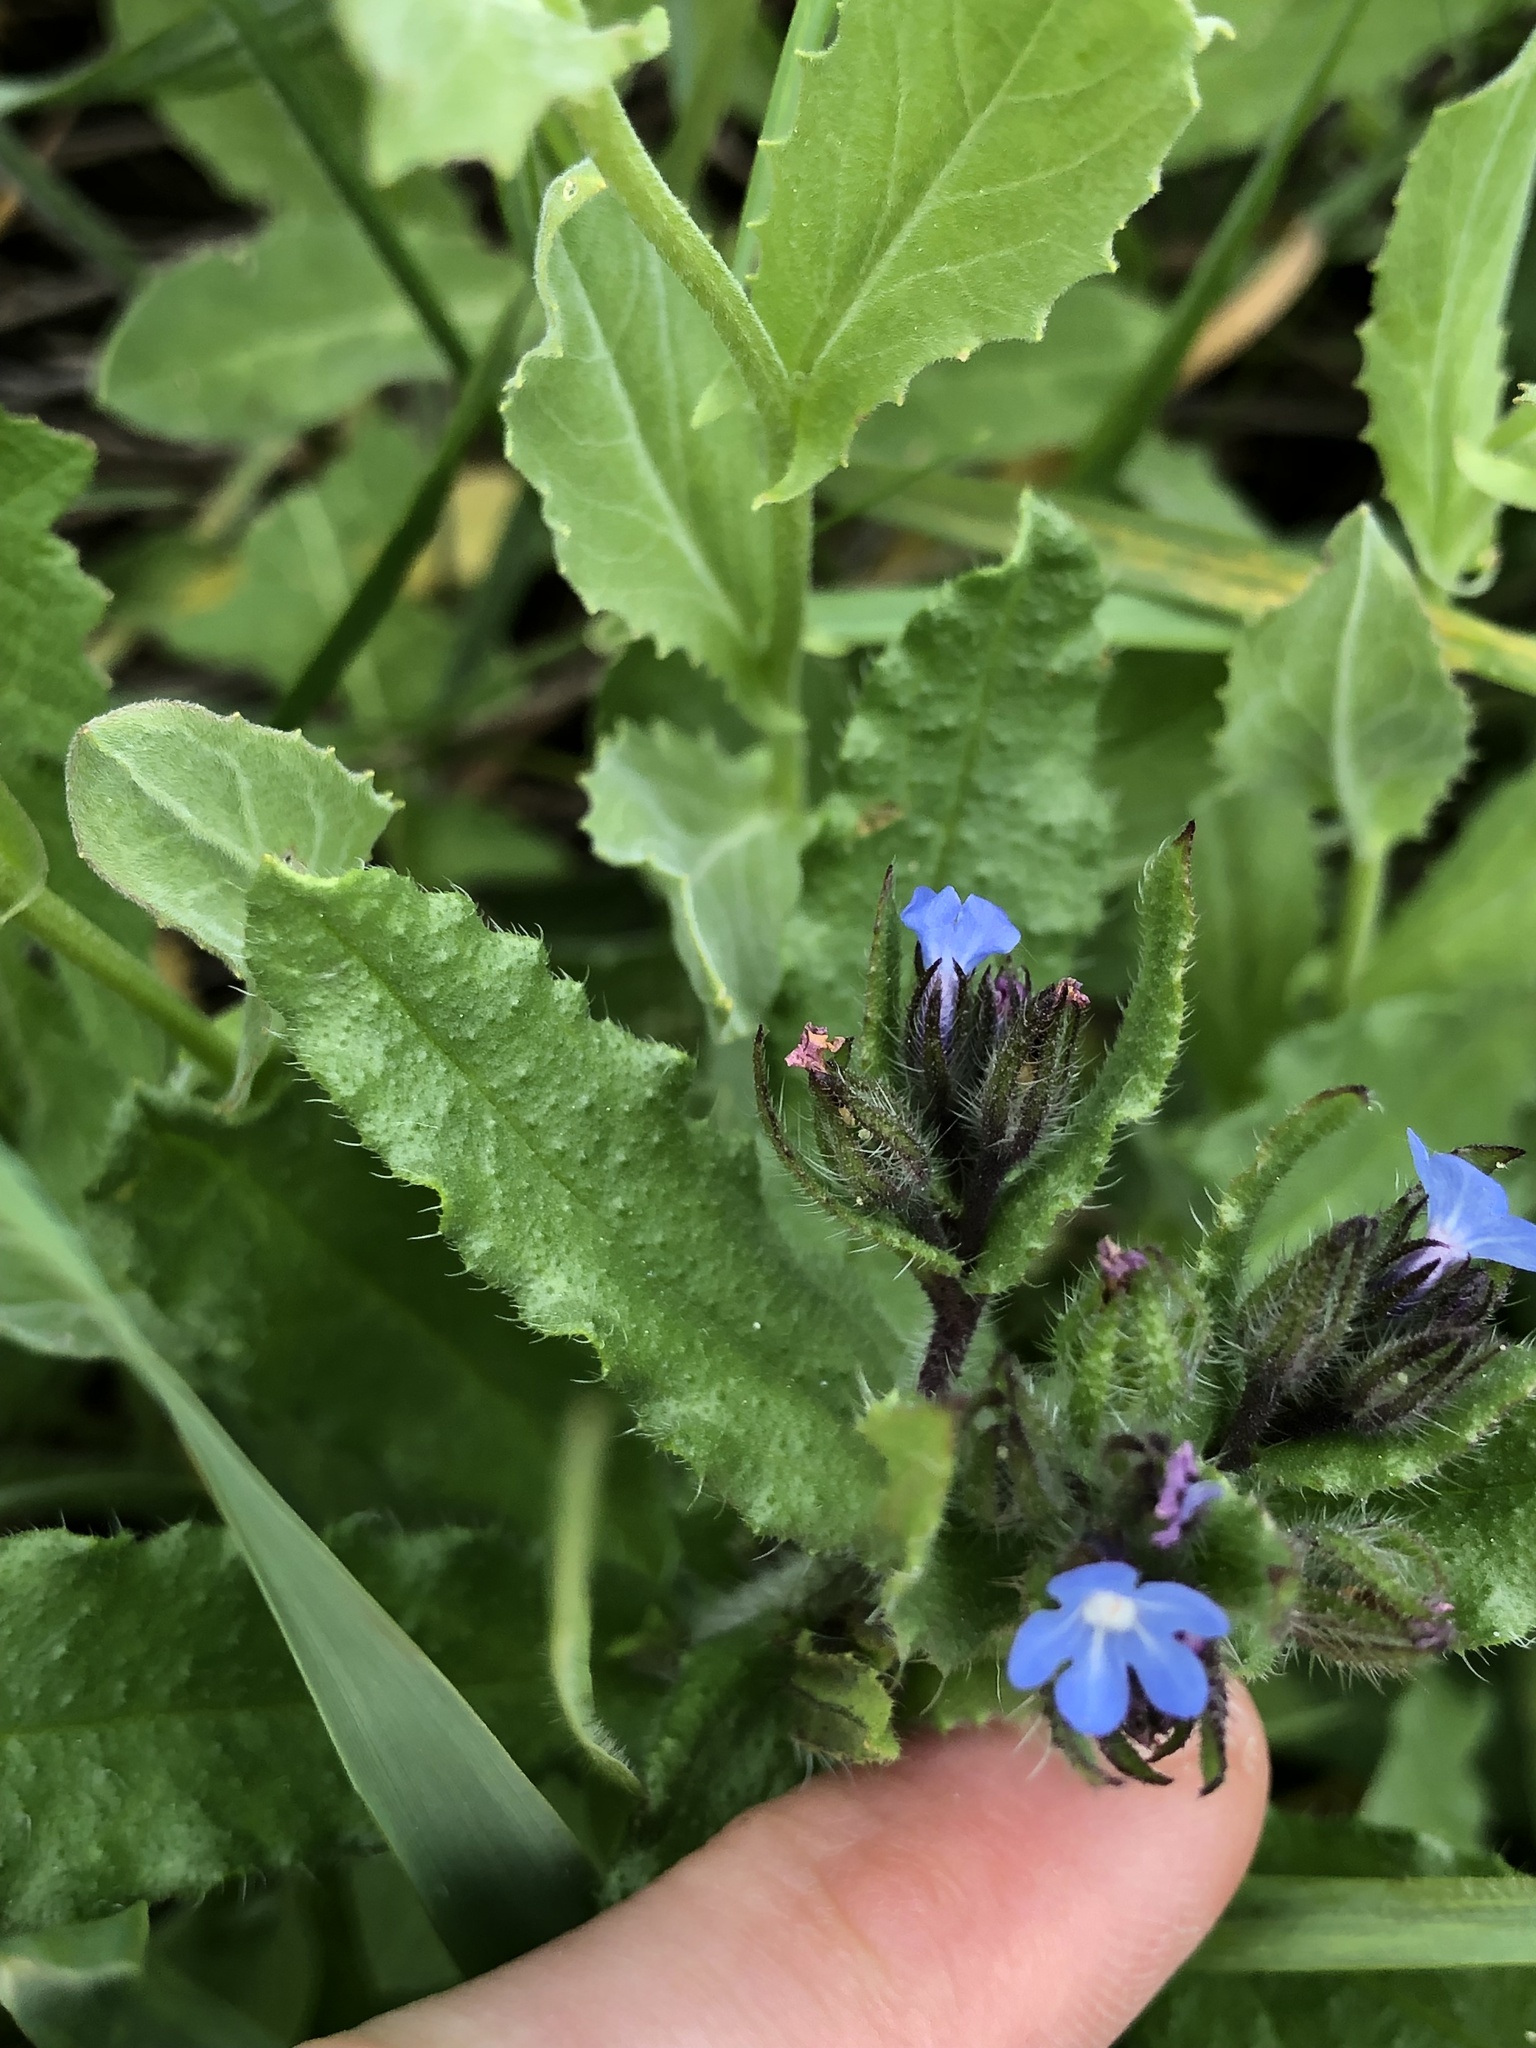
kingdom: Plantae
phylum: Tracheophyta
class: Magnoliopsida
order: Boraginales
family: Boraginaceae
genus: Lycopsis
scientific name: Lycopsis arvensis
